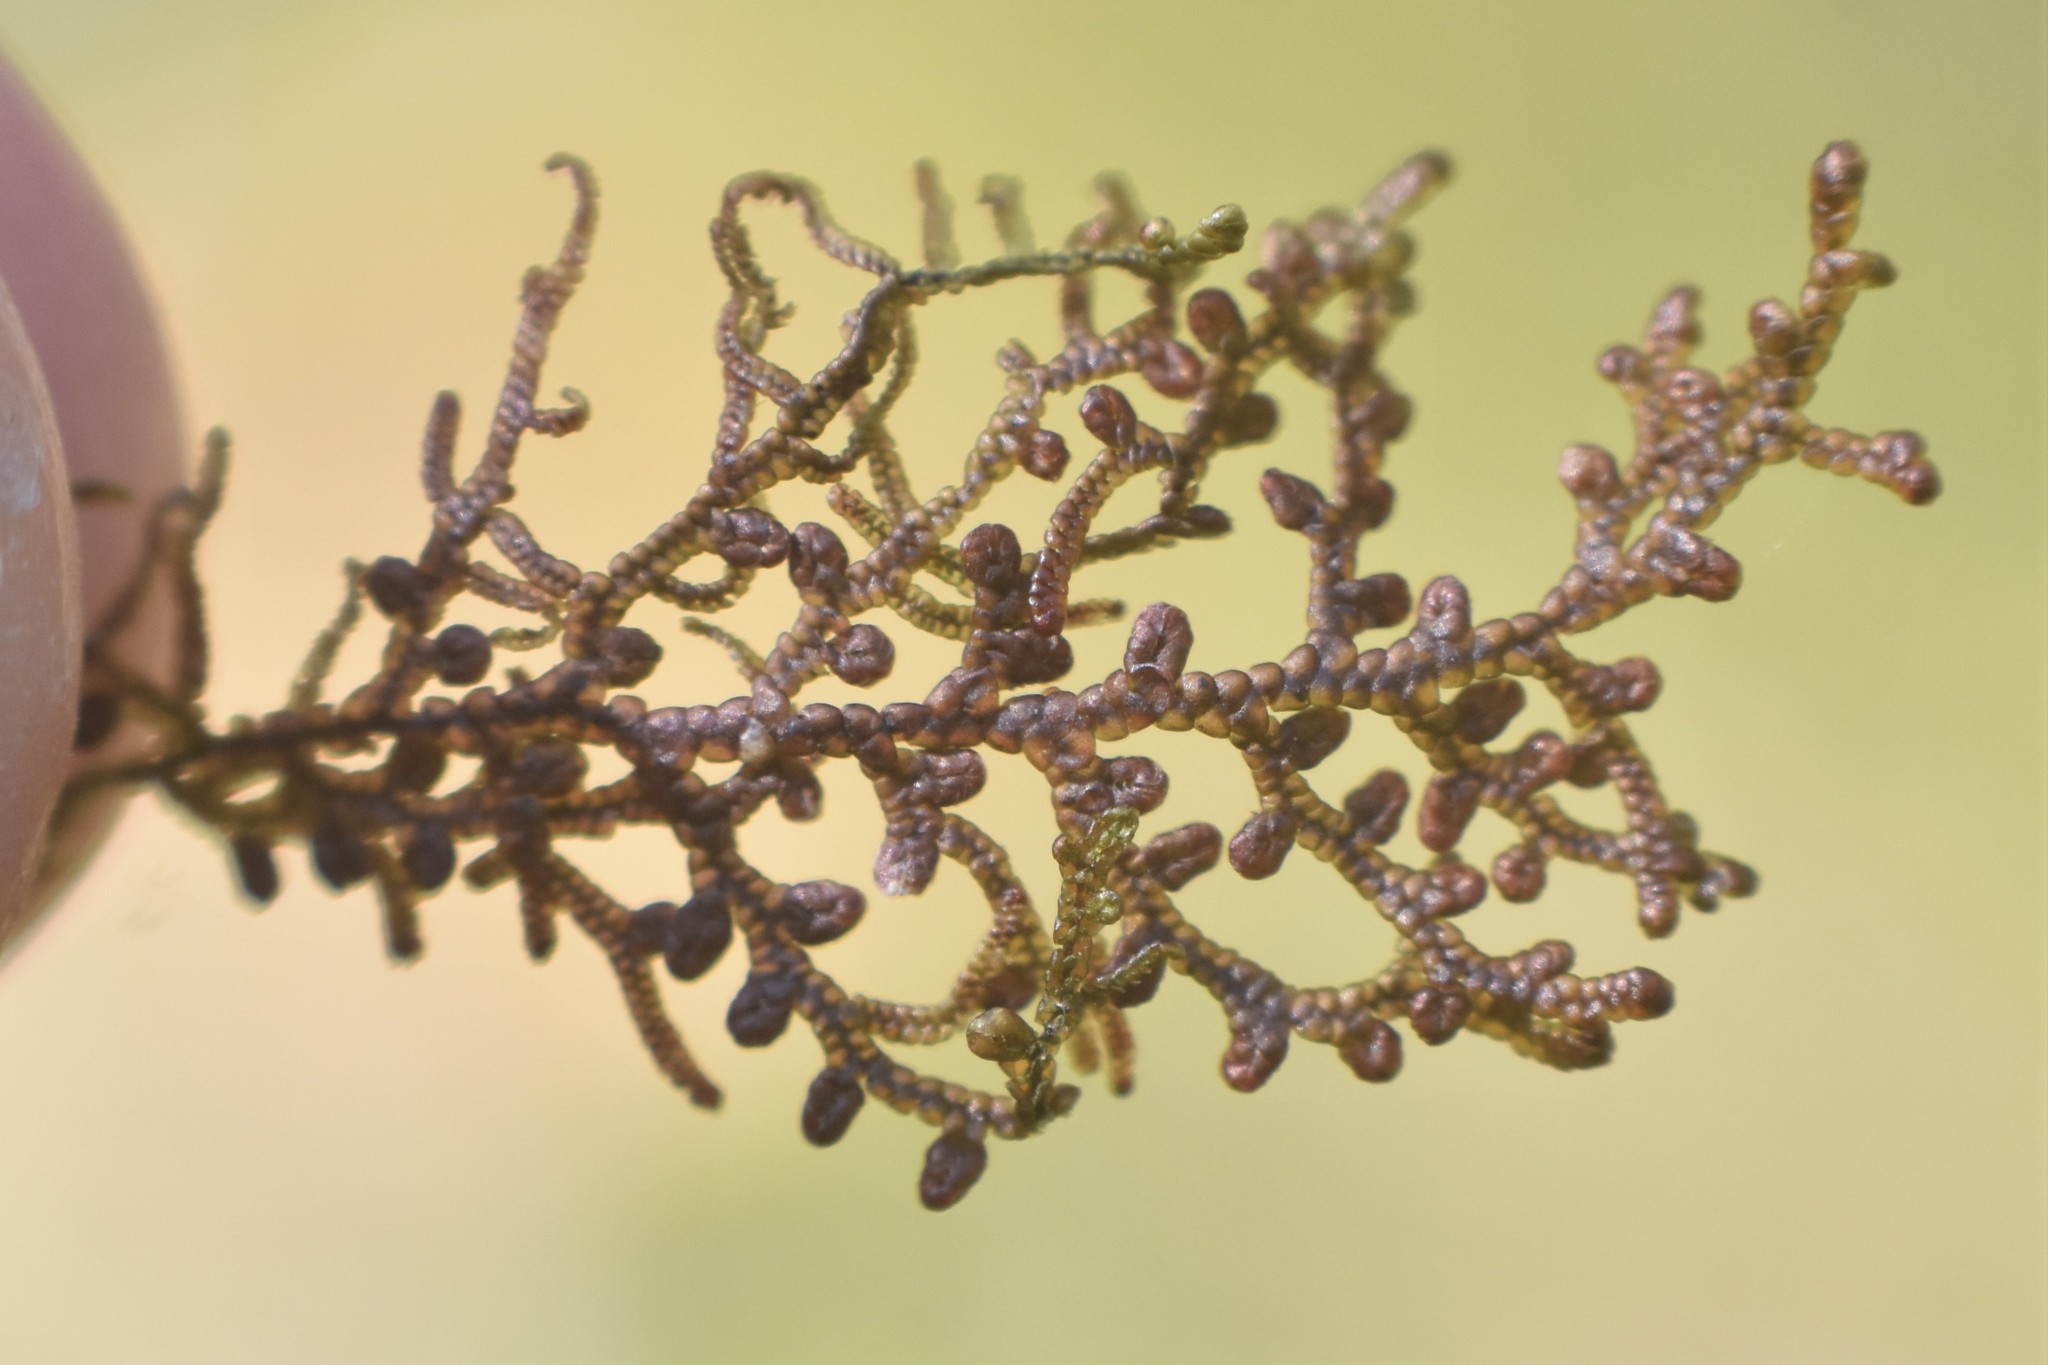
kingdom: Plantae
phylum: Marchantiophyta
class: Jungermanniopsida
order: Porellales
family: Frullaniaceae
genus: Frullania
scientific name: Frullania nisquallensis
